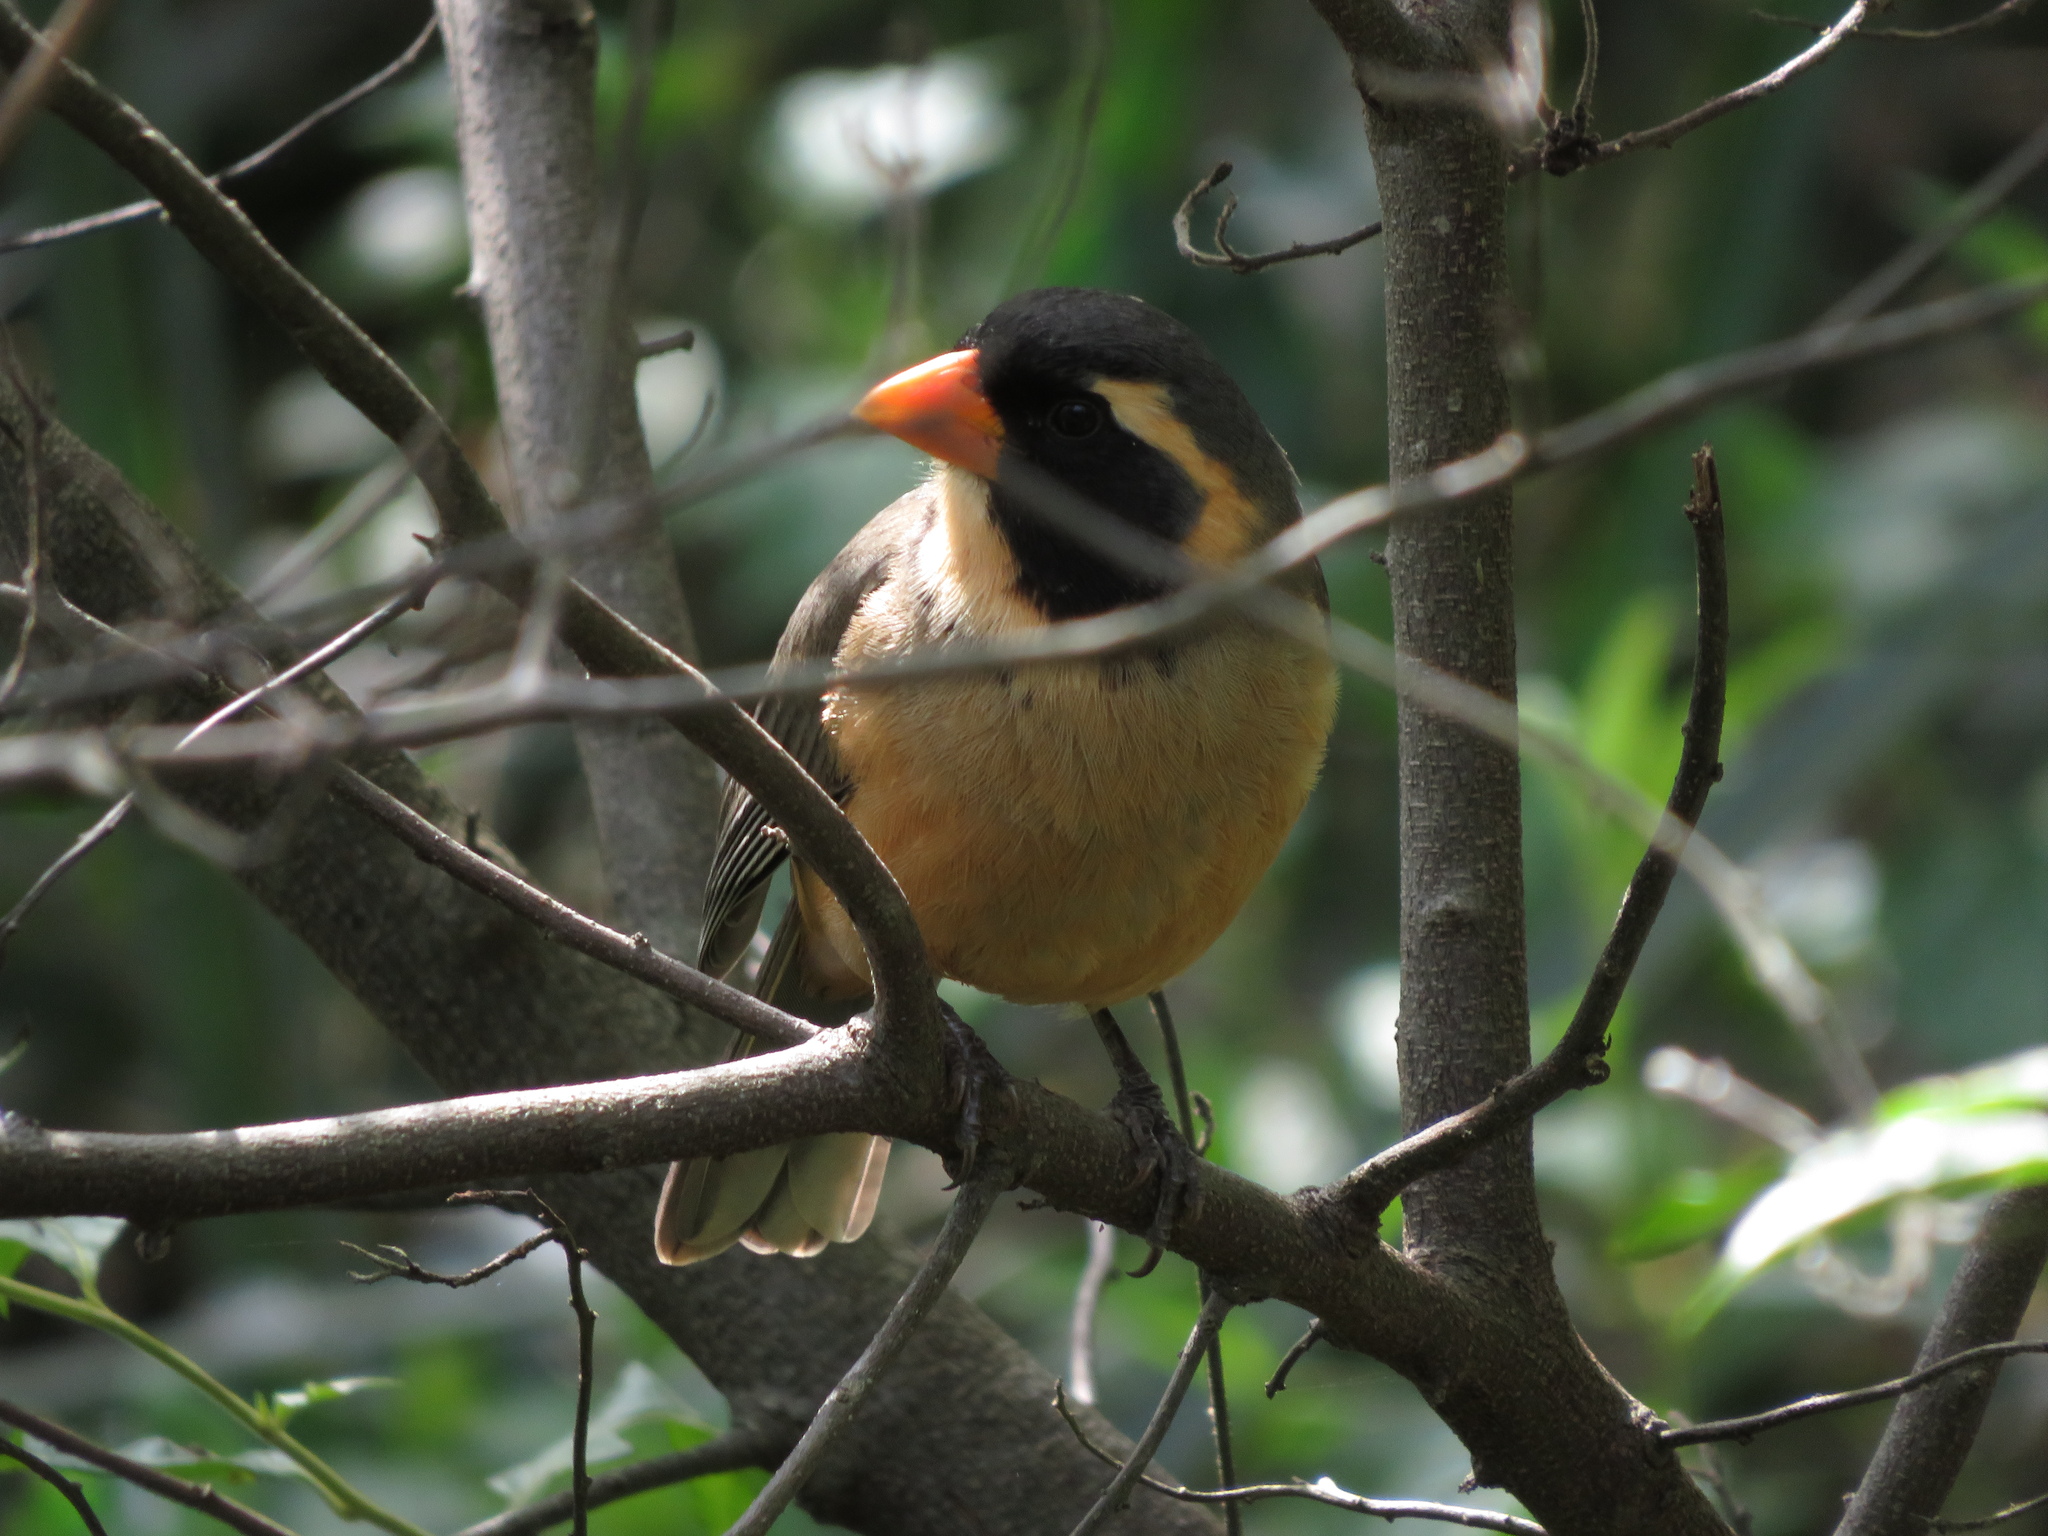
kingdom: Animalia
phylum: Chordata
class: Aves
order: Passeriformes
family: Thraupidae
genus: Saltator
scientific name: Saltator aurantiirostris
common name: Golden-billed saltator
